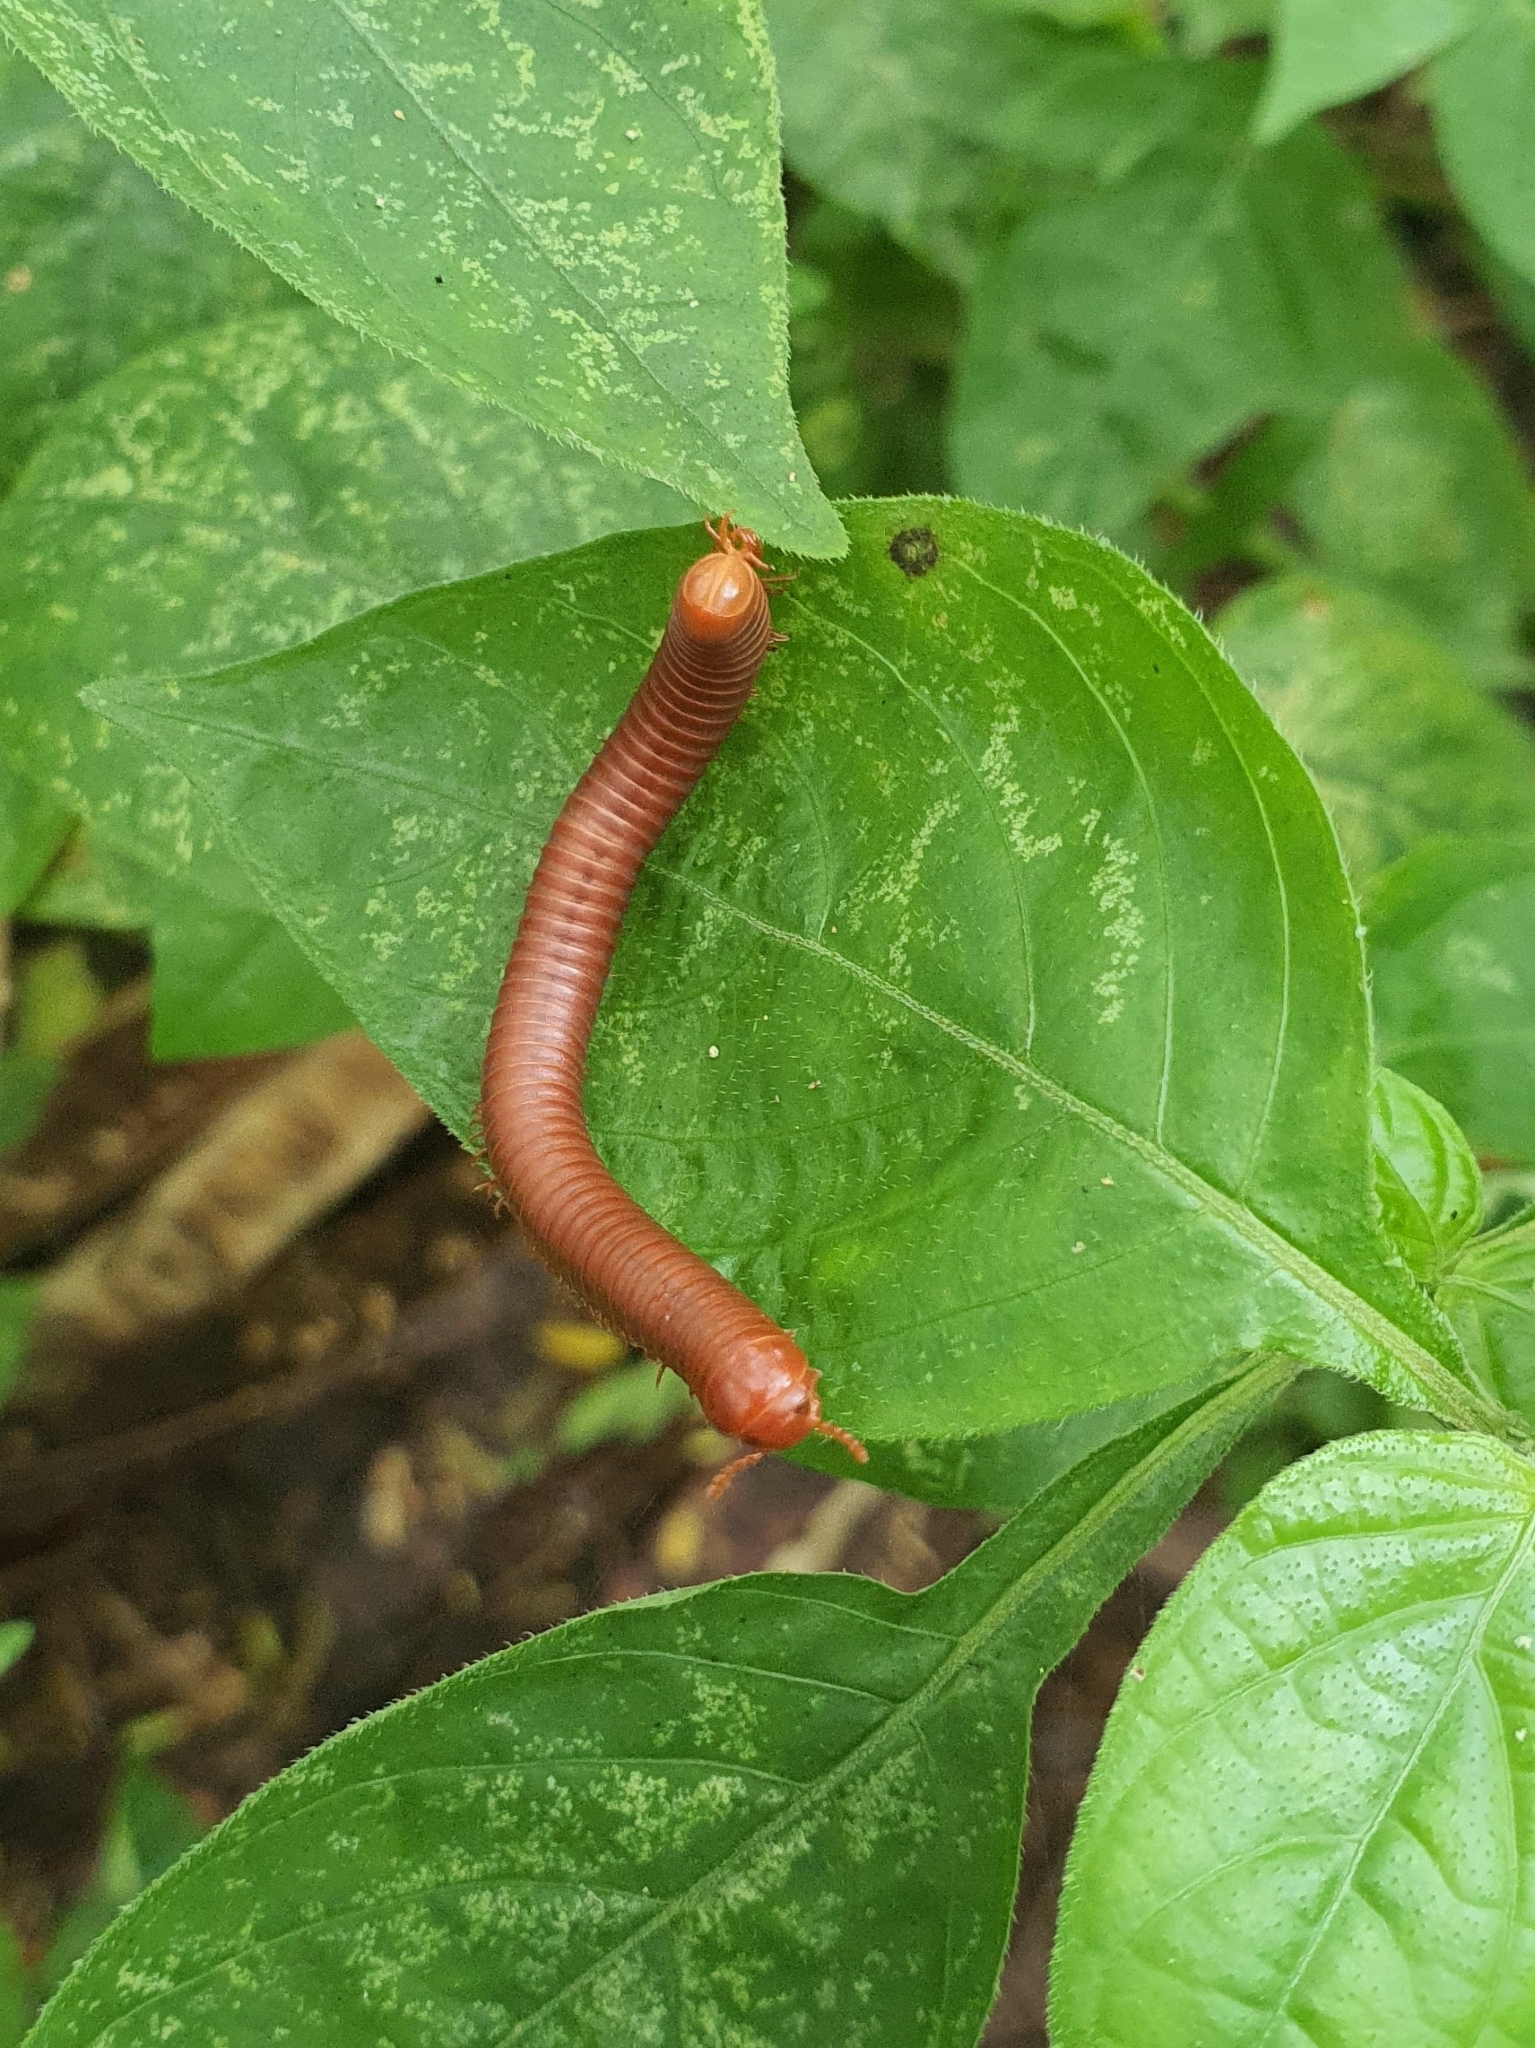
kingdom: Animalia
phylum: Arthropoda
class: Diplopoda
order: Spirobolida
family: Pachybolidae
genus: Trigoniulus
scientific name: Trigoniulus corallinus
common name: Millipede
